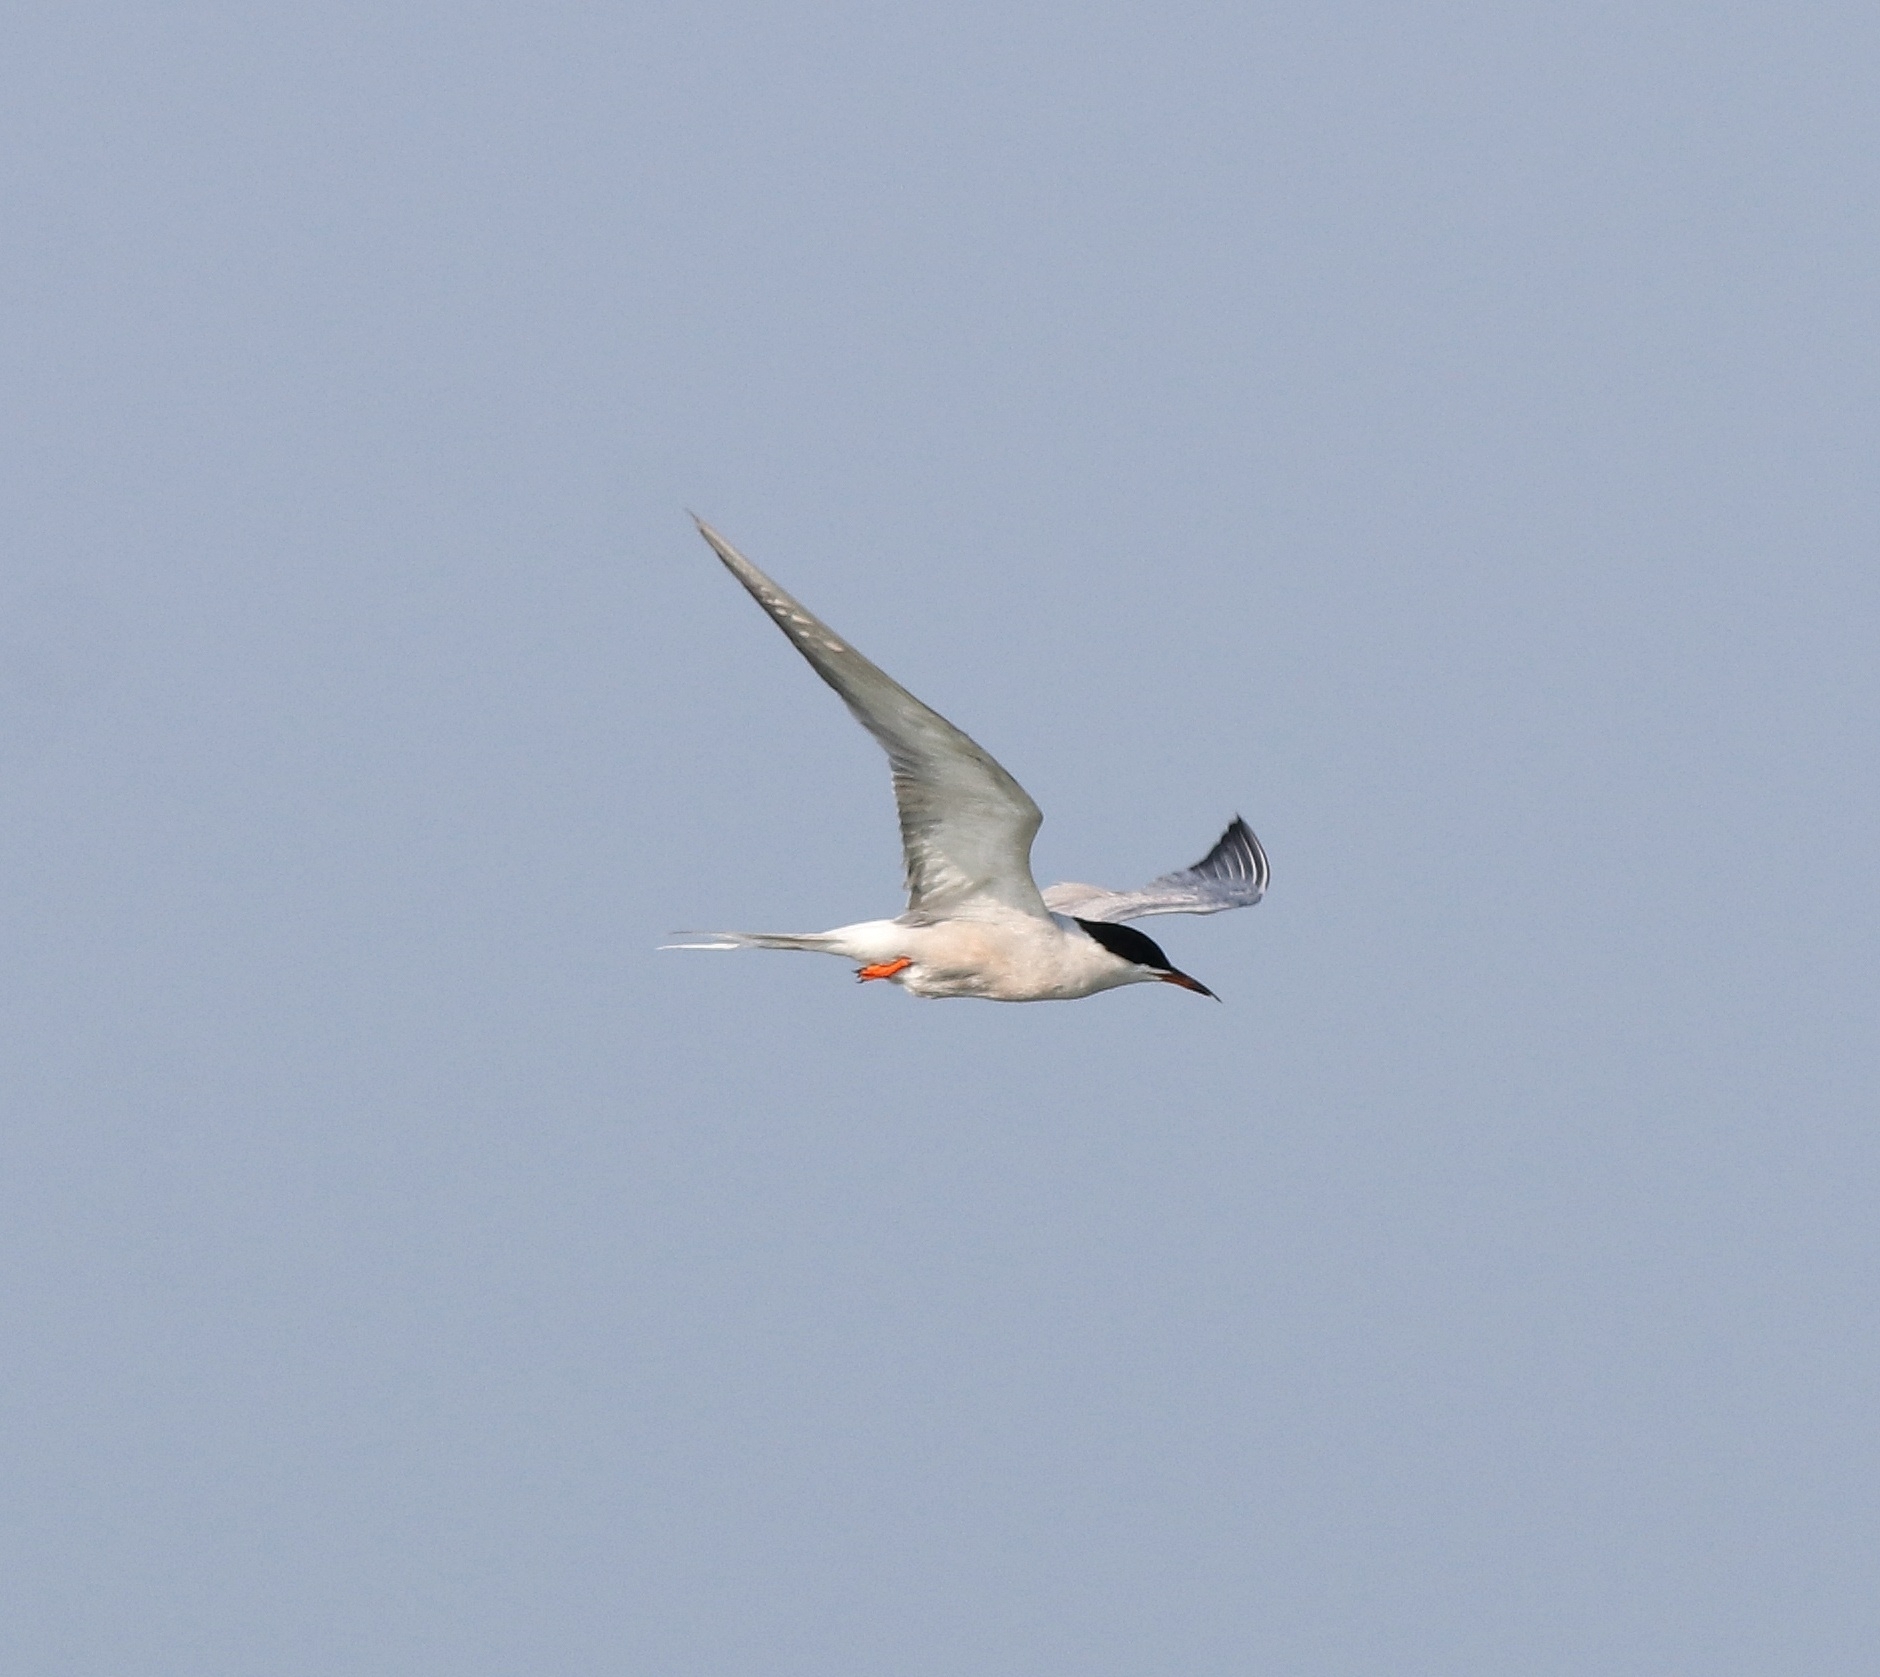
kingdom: Animalia
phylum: Chordata
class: Aves
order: Charadriiformes
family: Laridae
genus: Sterna
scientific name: Sterna hirundo
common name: Common tern
